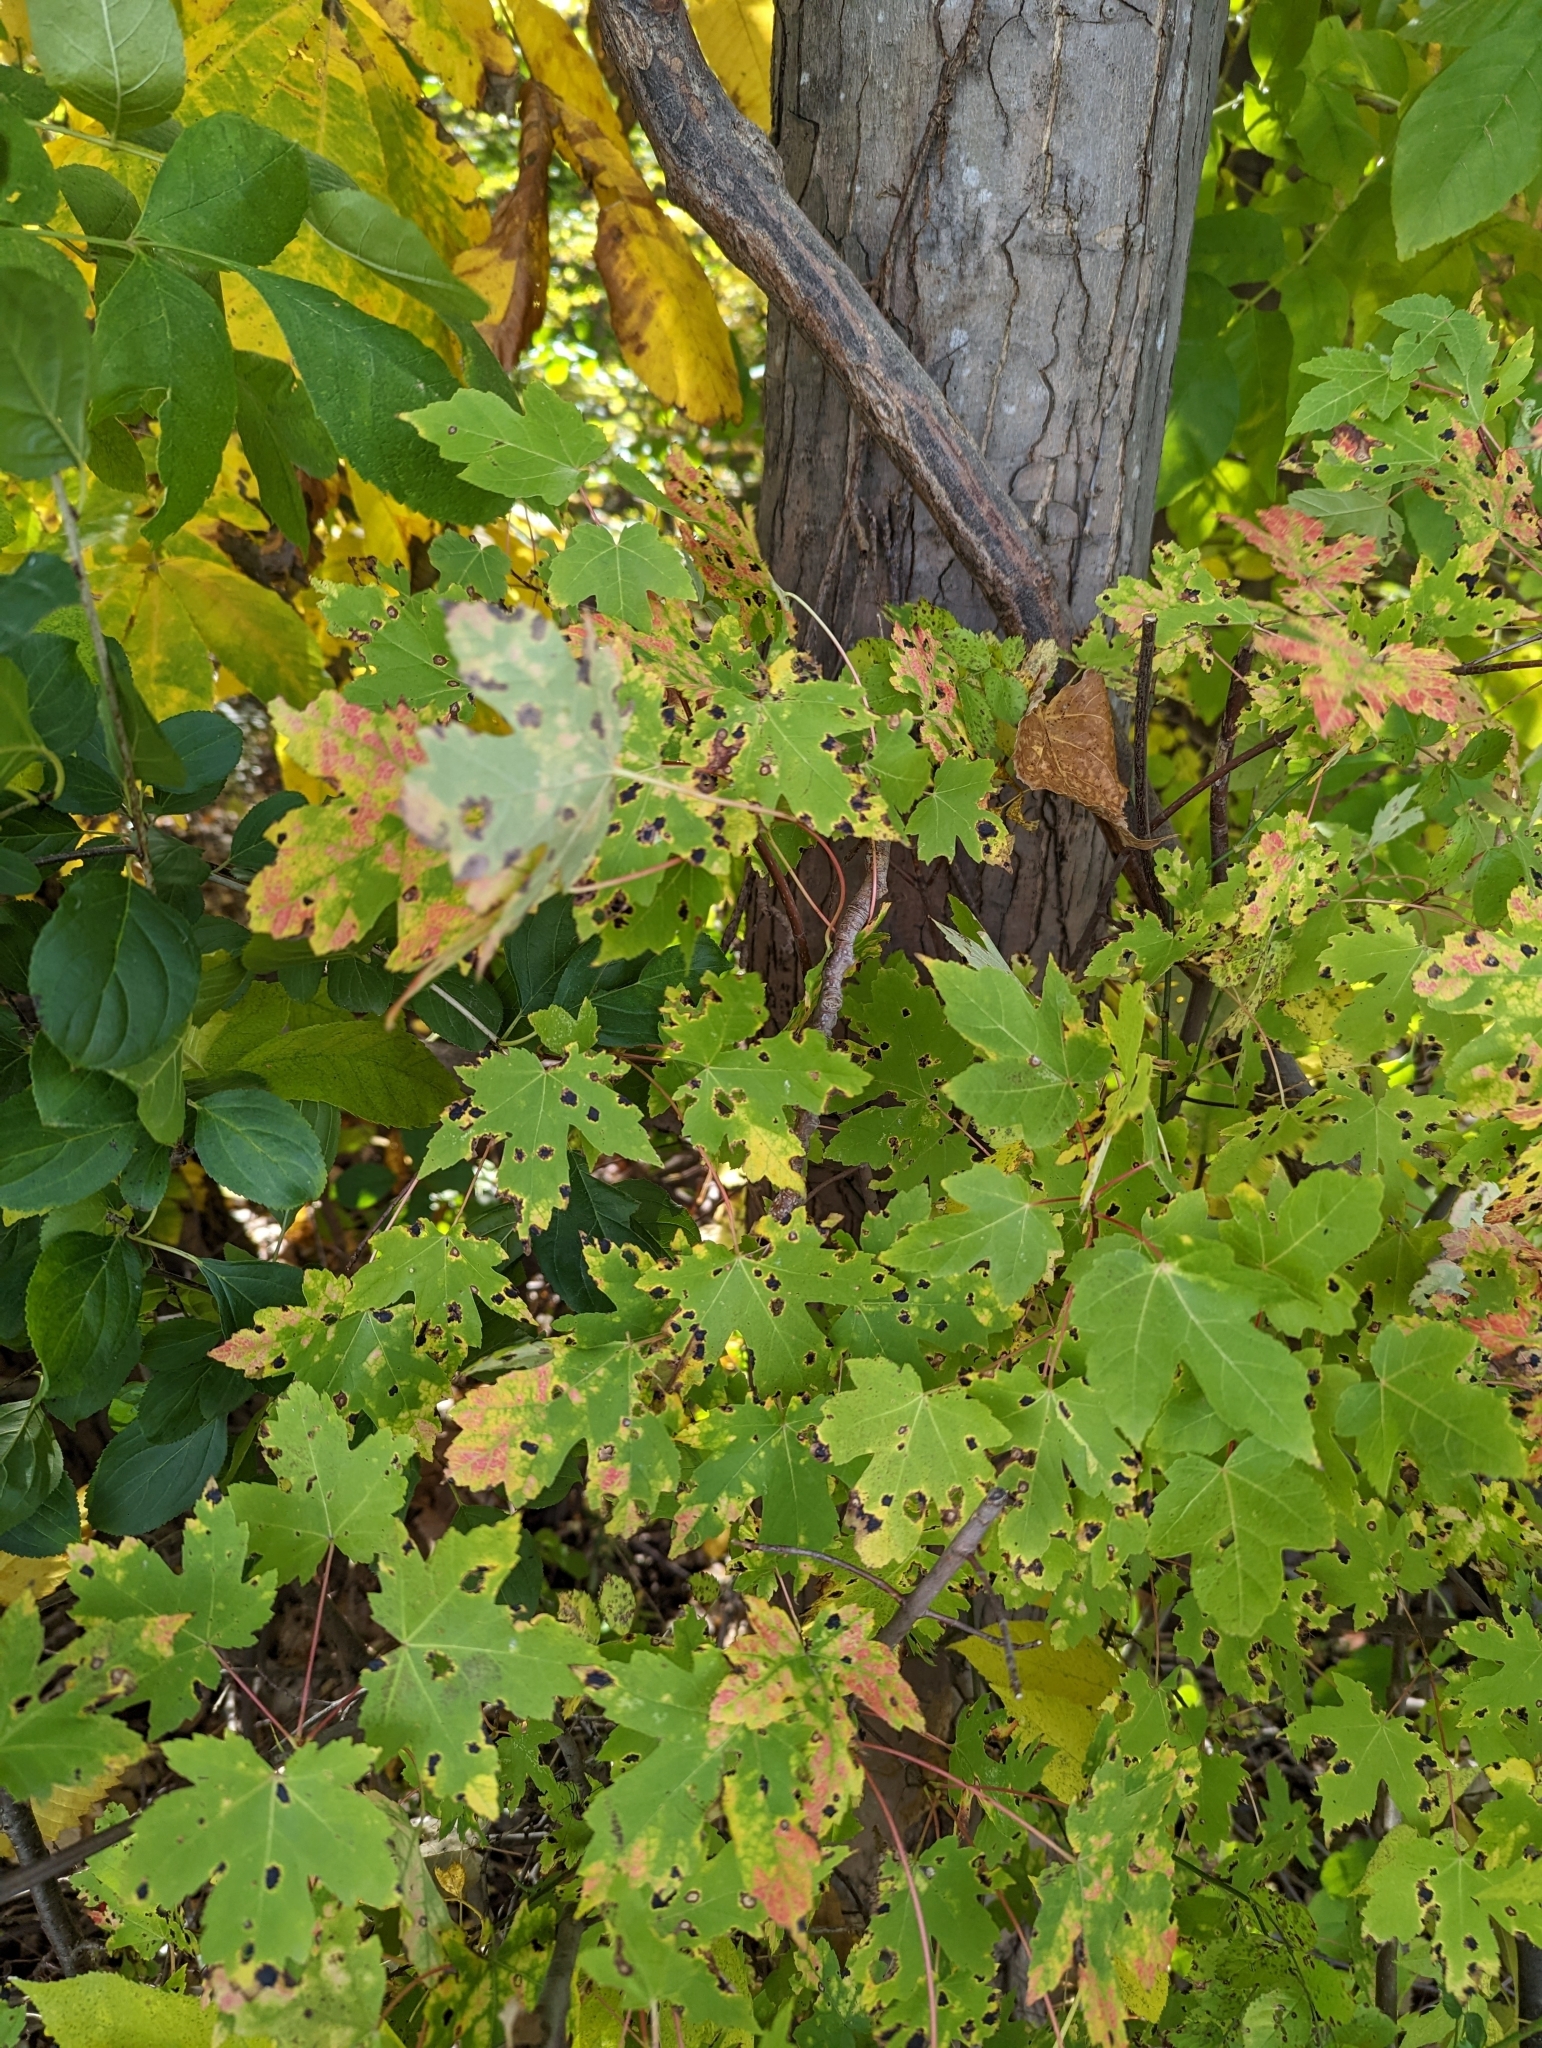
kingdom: Fungi
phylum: Ascomycota
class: Leotiomycetes
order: Rhytismatales
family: Rhytismataceae
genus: Rhytisma
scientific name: Rhytisma americanum
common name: American tar spot
